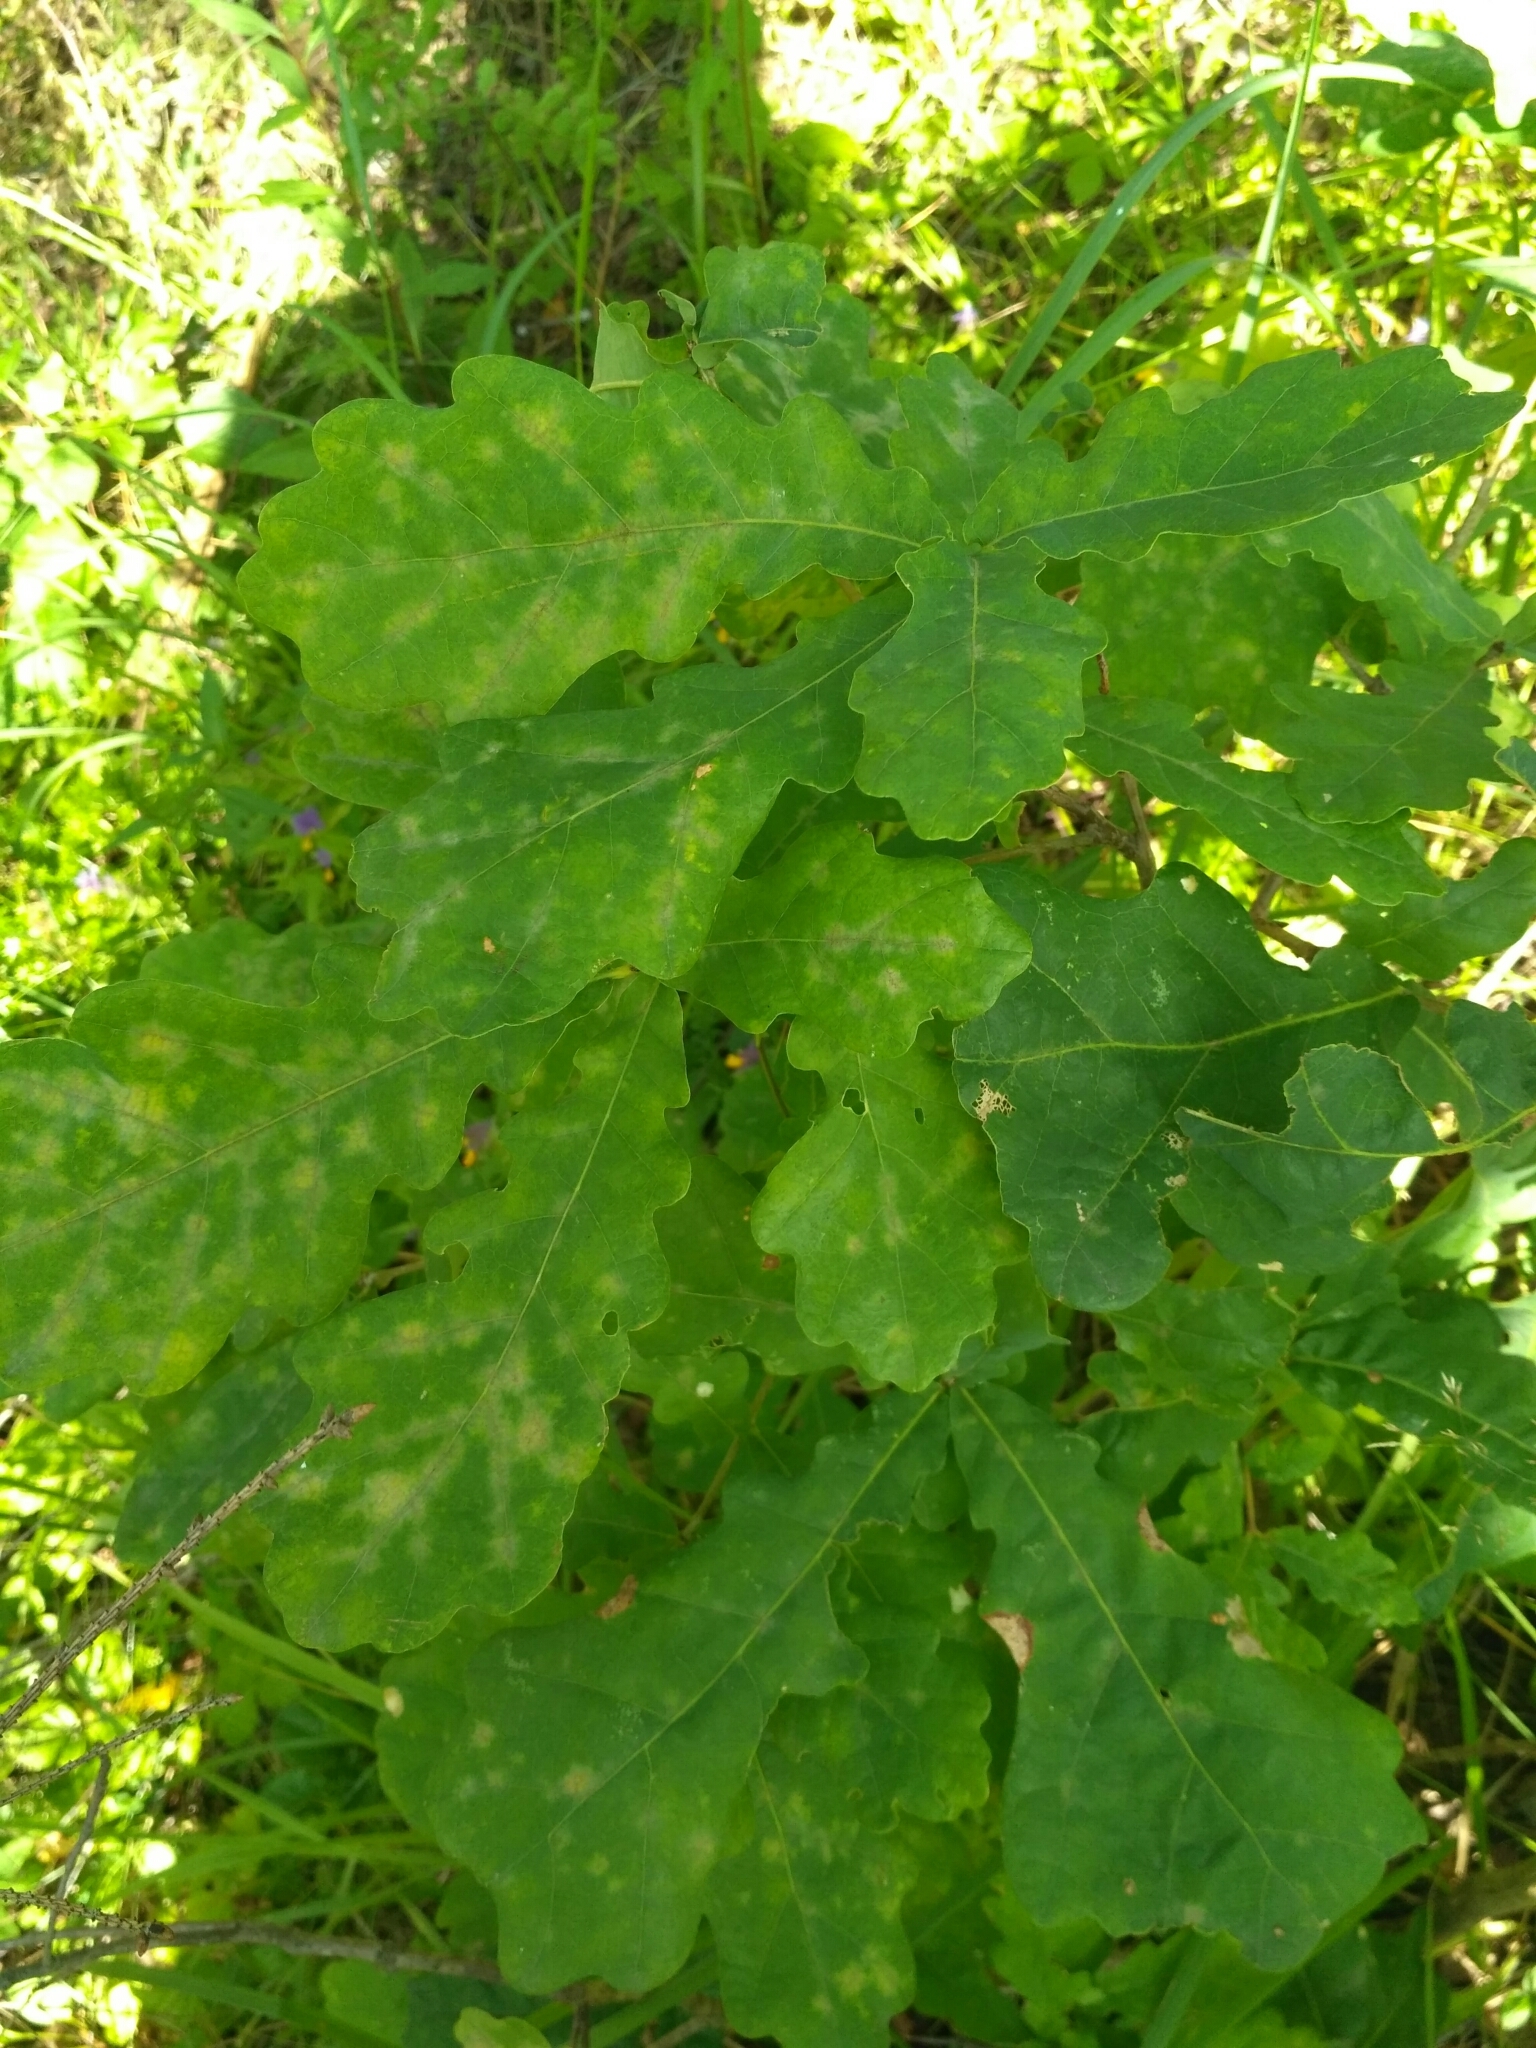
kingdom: Plantae
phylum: Tracheophyta
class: Magnoliopsida
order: Fagales
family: Fagaceae
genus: Quercus
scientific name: Quercus robur
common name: Pedunculate oak
